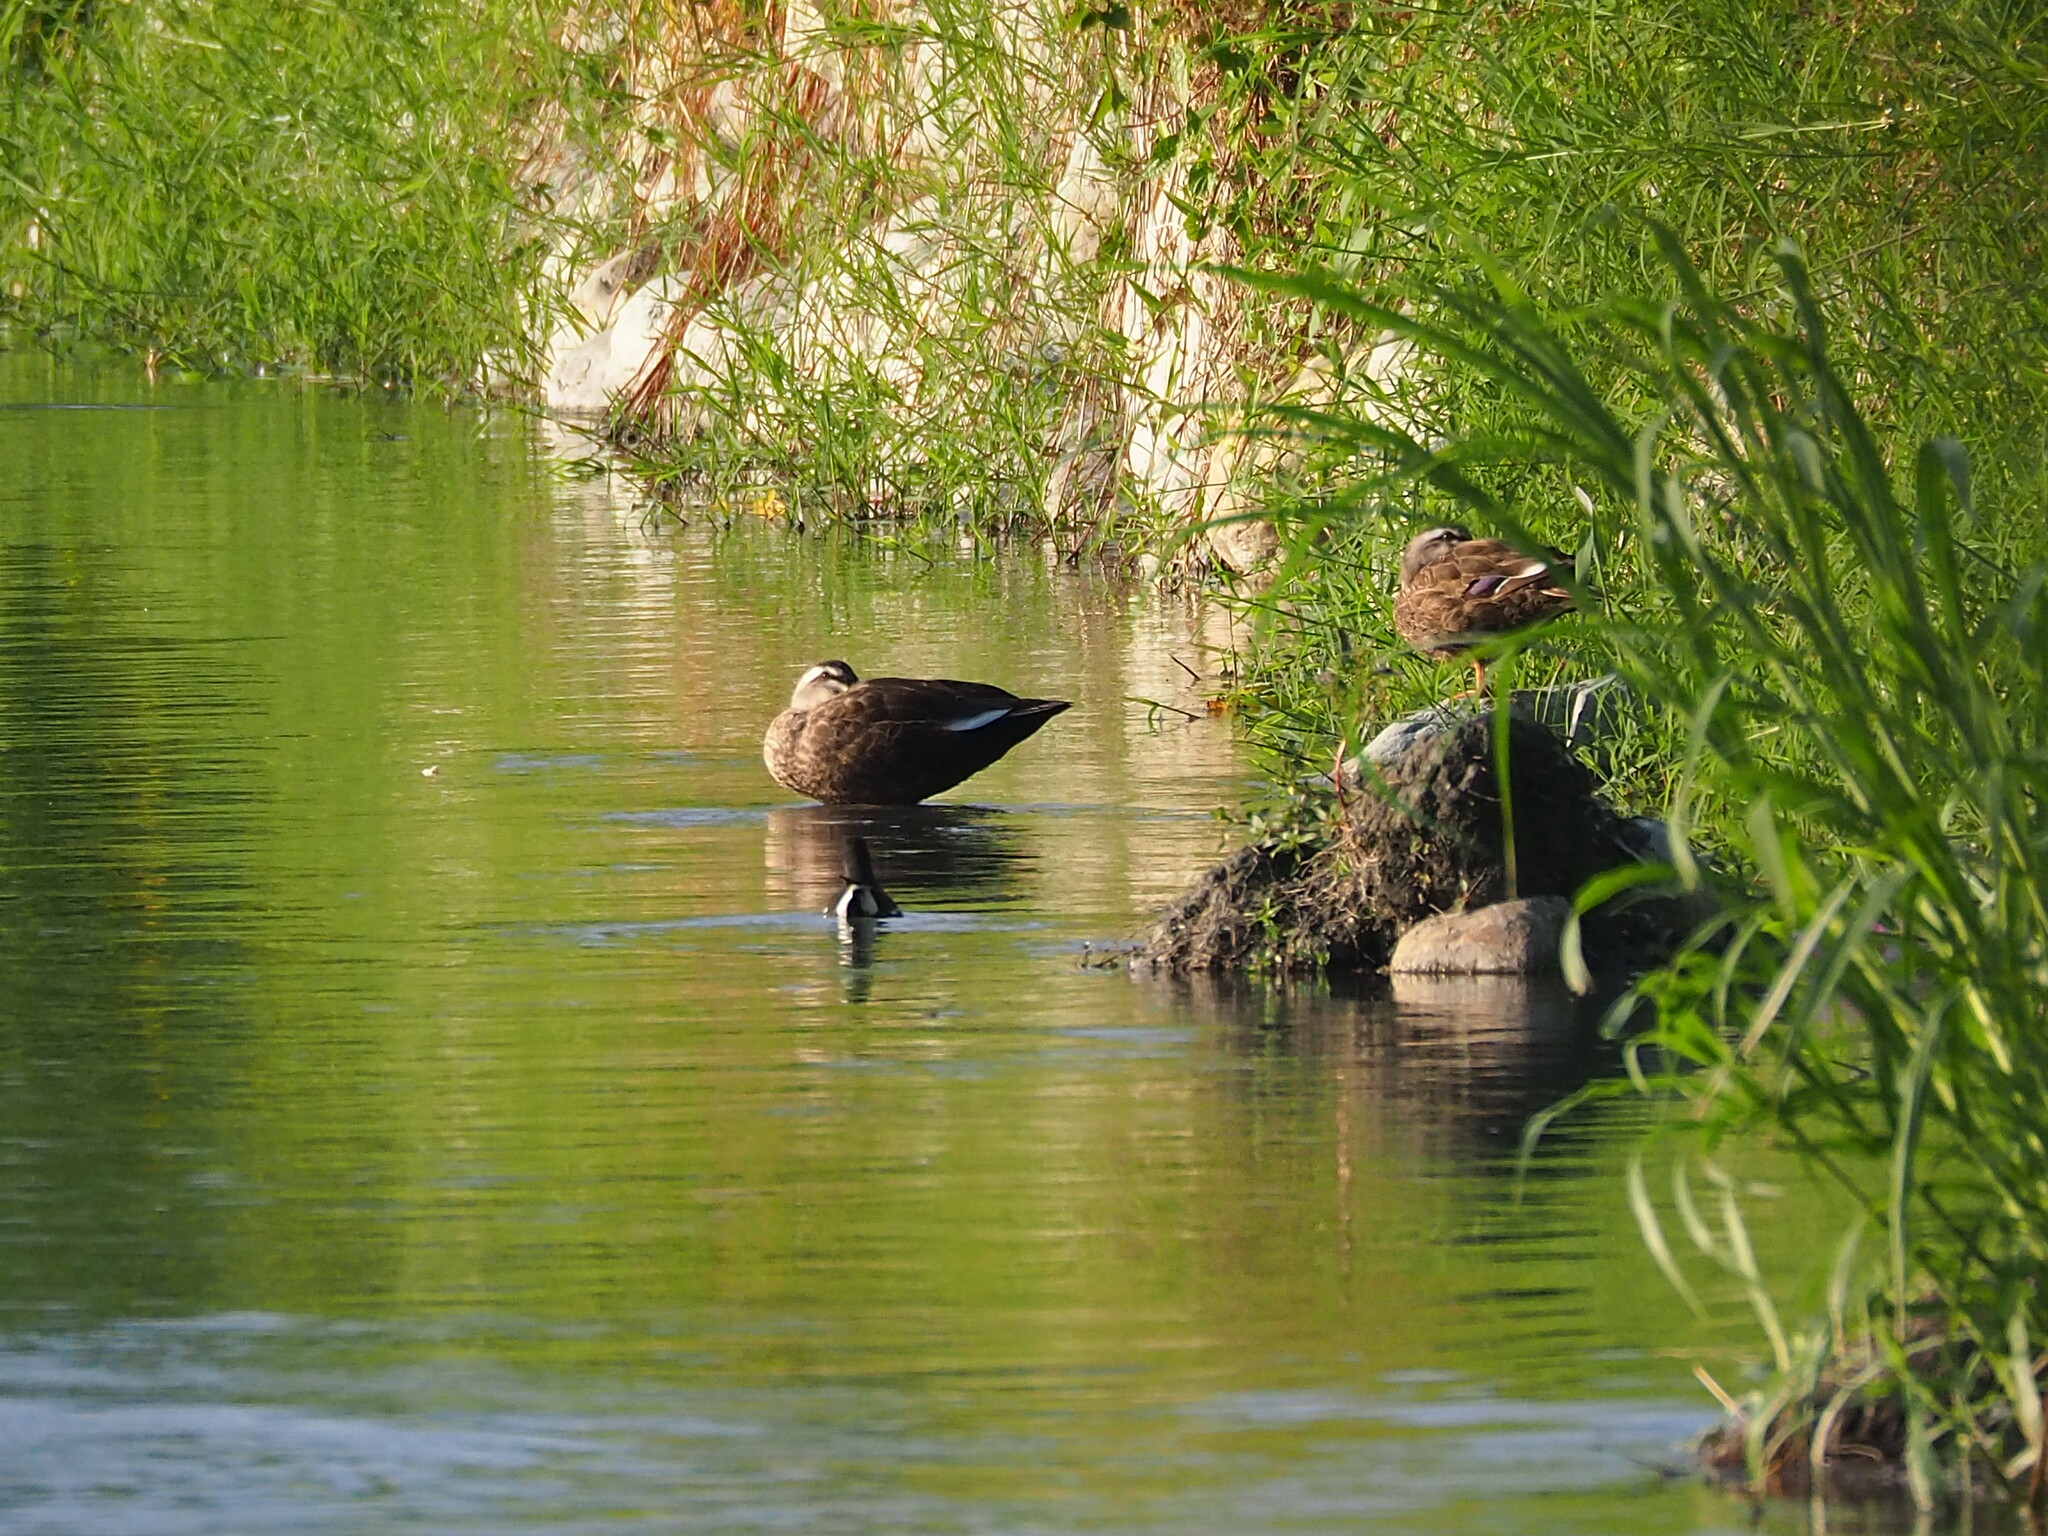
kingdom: Animalia
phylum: Chordata
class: Aves
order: Anseriformes
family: Anatidae
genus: Anas
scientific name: Anas zonorhyncha
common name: Eastern spot-billed duck
